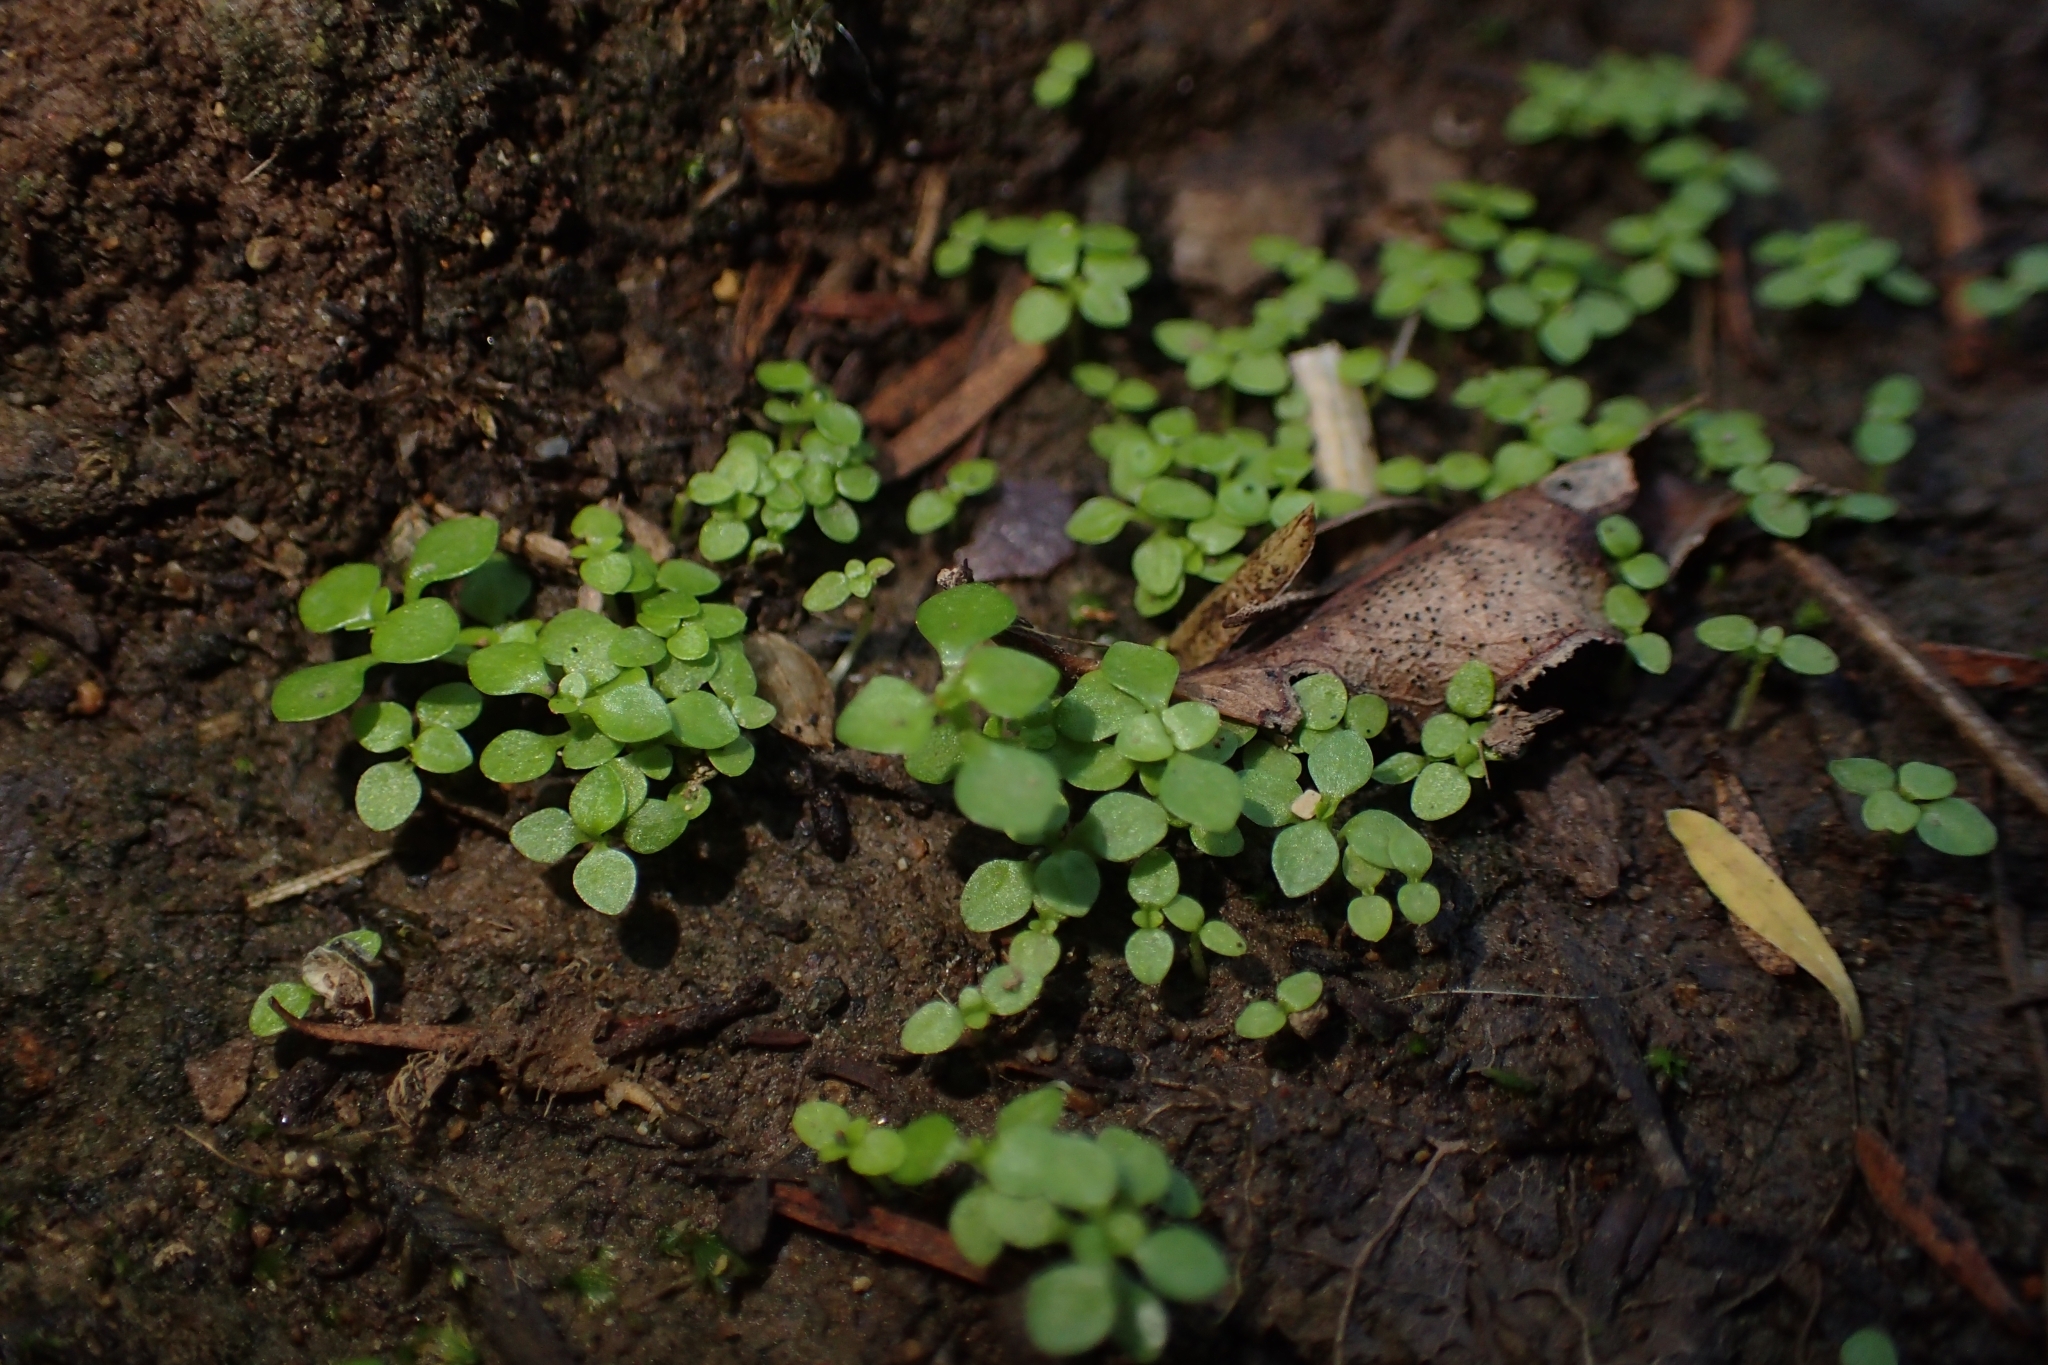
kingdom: Plantae
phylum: Tracheophyta
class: Magnoliopsida
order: Lamiales
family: Plantaginaceae
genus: Callitriche
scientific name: Callitriche muelleri
